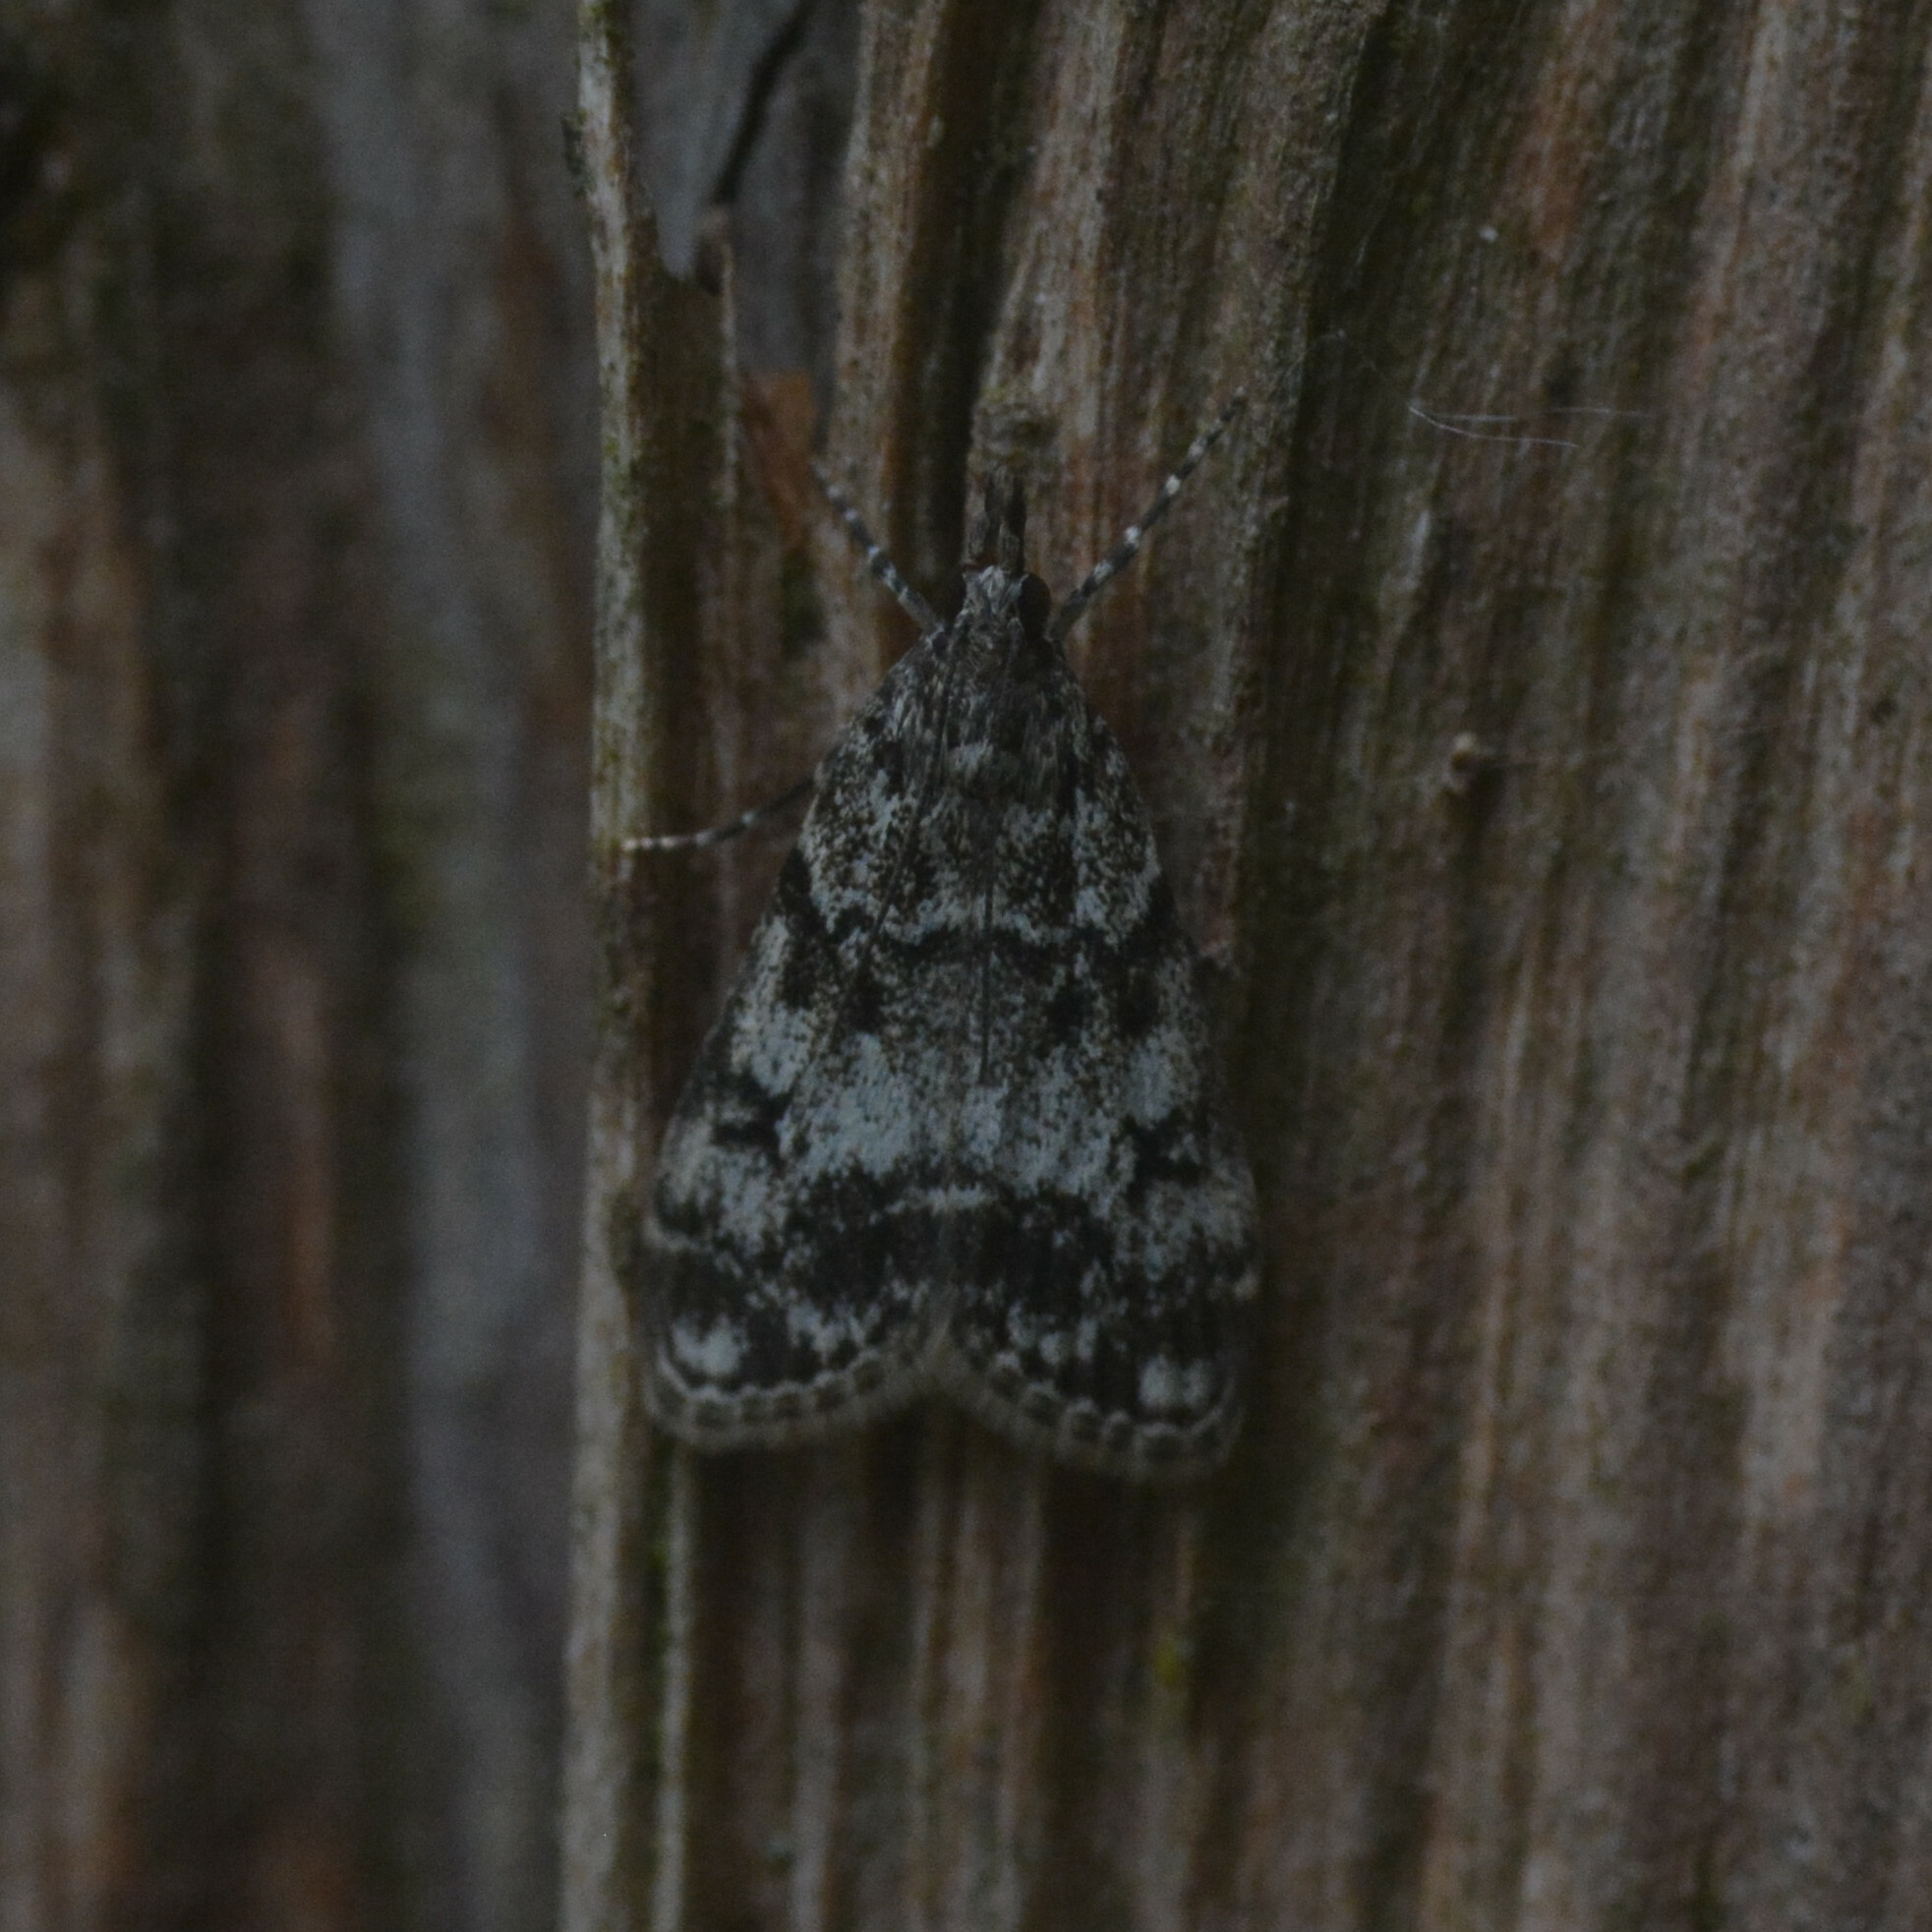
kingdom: Animalia
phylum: Arthropoda
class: Insecta
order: Lepidoptera
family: Crambidae
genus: Eudonia
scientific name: Eudonia lacustrata
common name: Little grey
